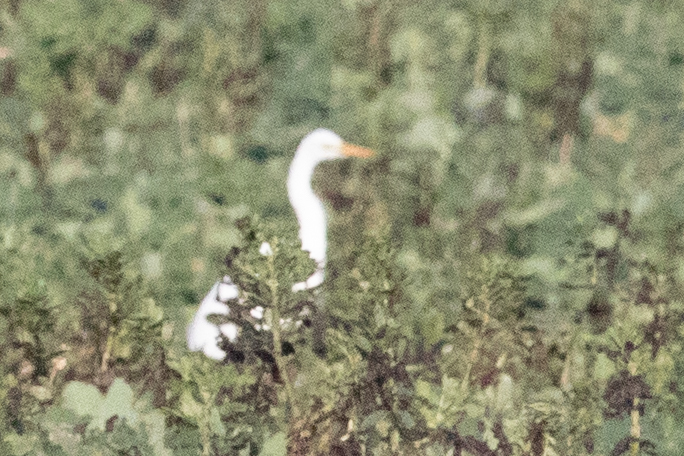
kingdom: Animalia
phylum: Chordata
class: Aves
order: Pelecaniformes
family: Ardeidae
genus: Ardea
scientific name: Ardea alba
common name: Great egret
